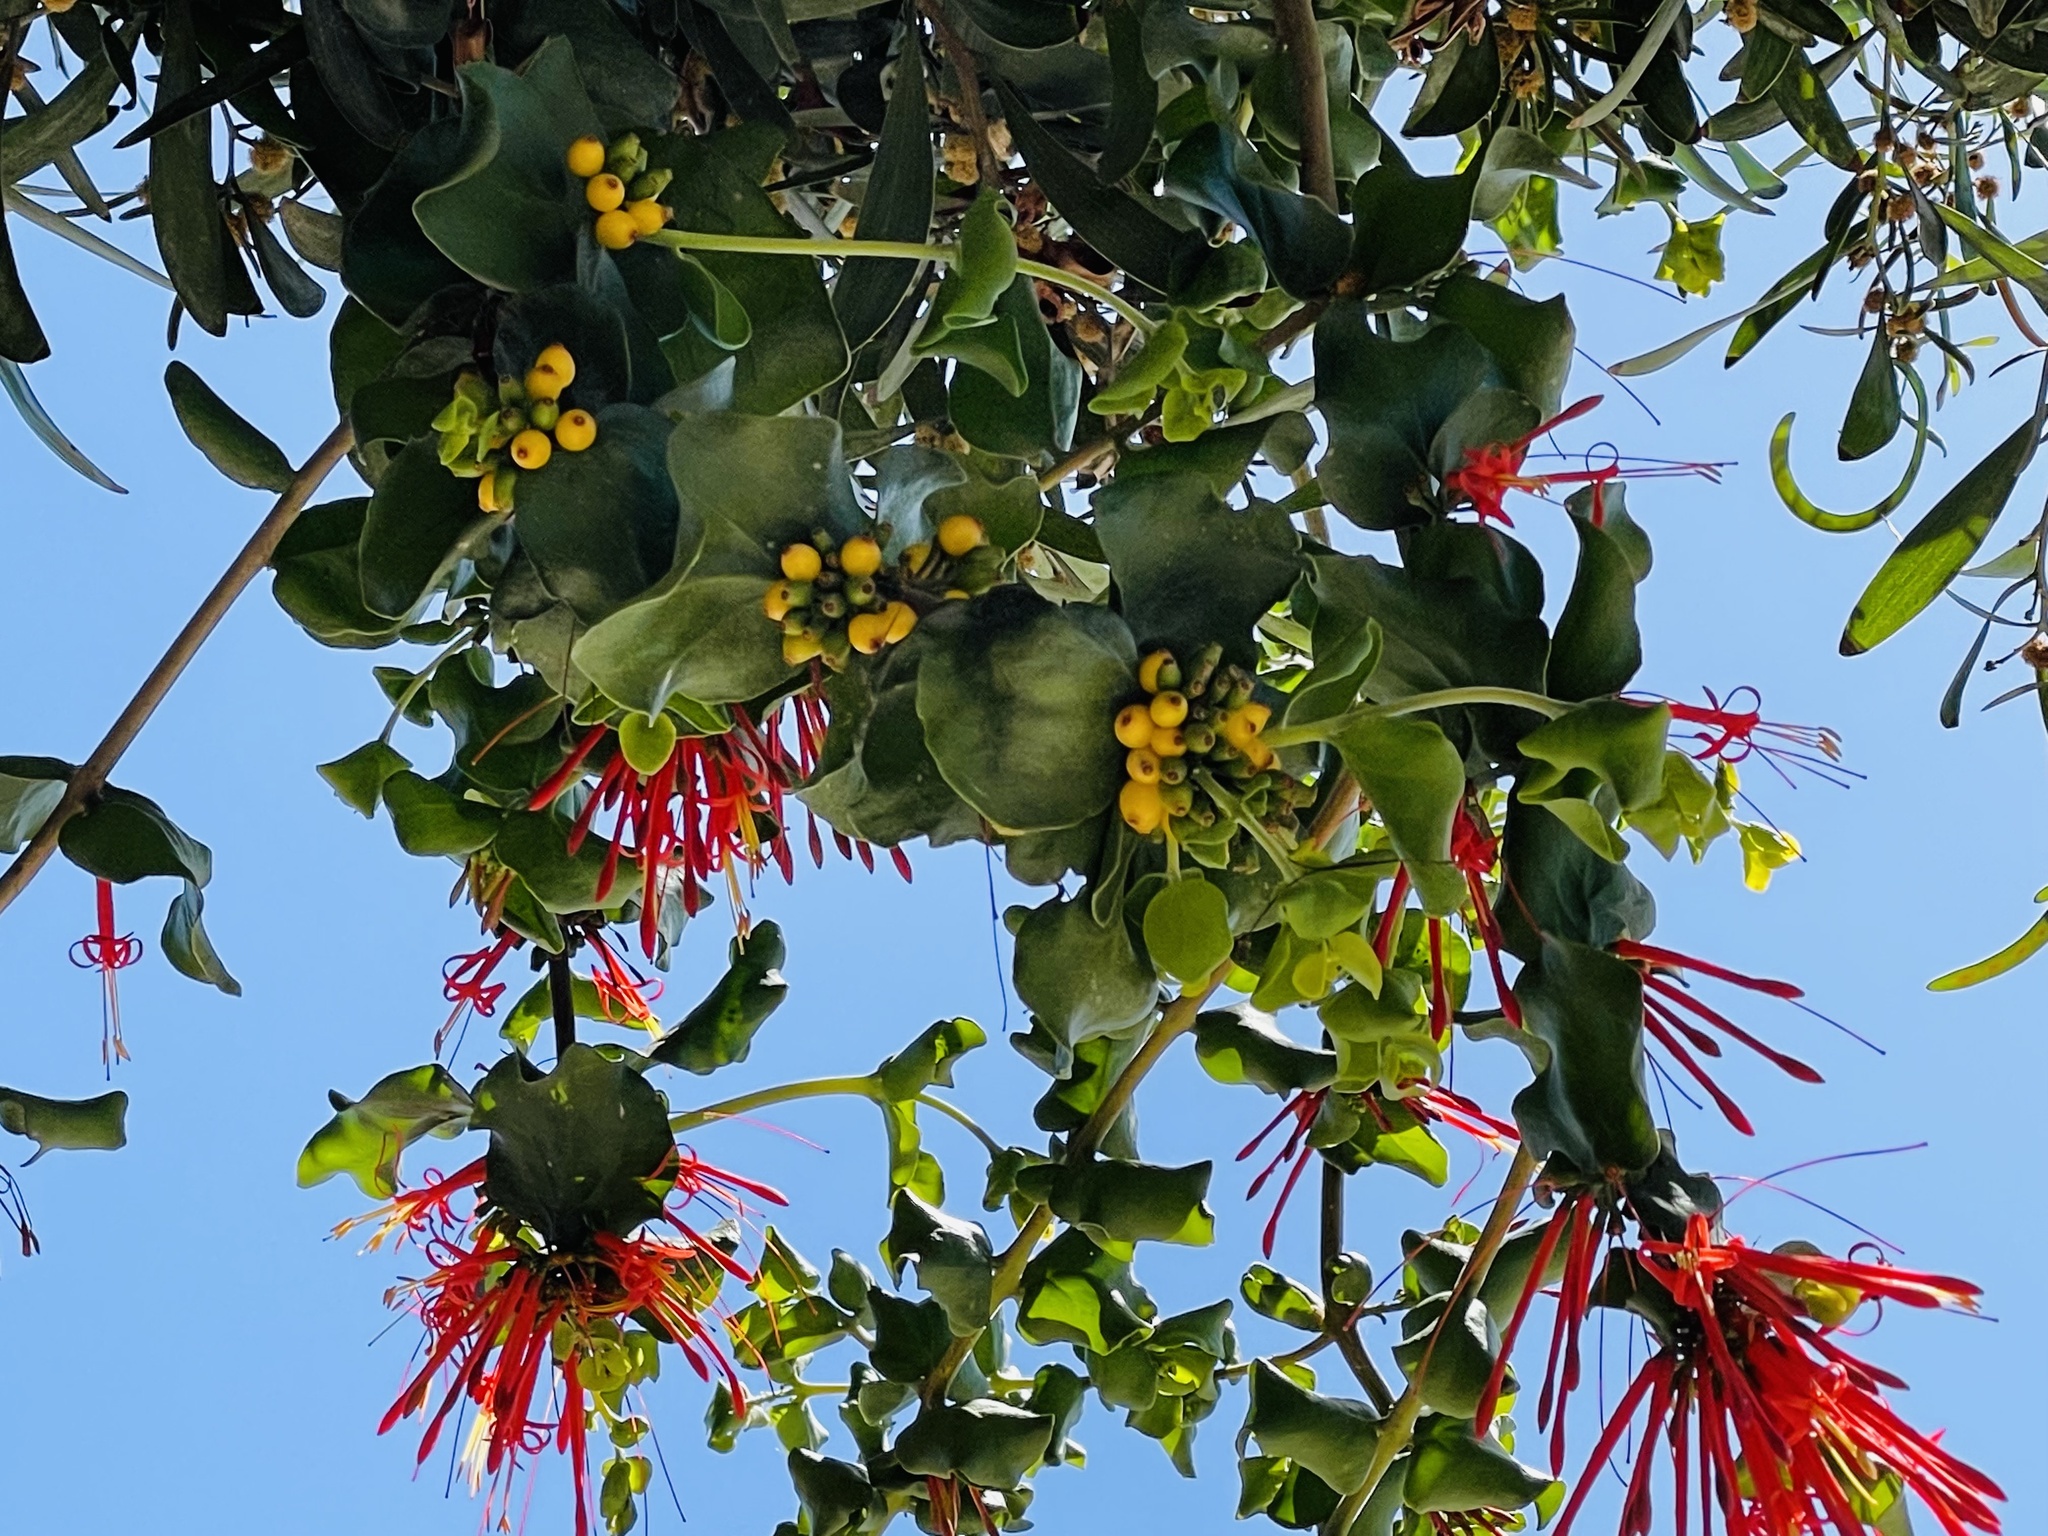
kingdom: Plantae
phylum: Tracheophyta
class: Magnoliopsida
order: Santalales
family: Loranthaceae
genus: Tristerix
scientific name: Tristerix corymbosus
